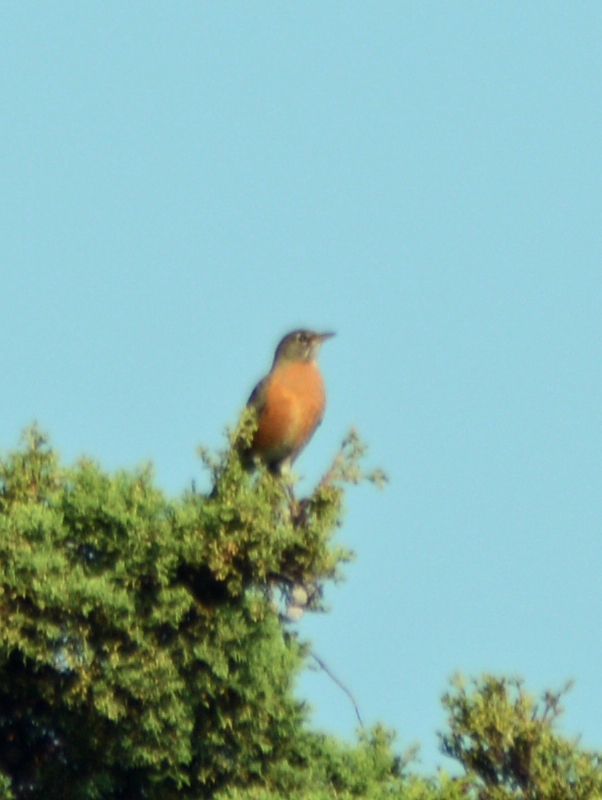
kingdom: Animalia
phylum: Chordata
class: Aves
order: Passeriformes
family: Turdidae
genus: Turdus
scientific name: Turdus migratorius
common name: American robin
